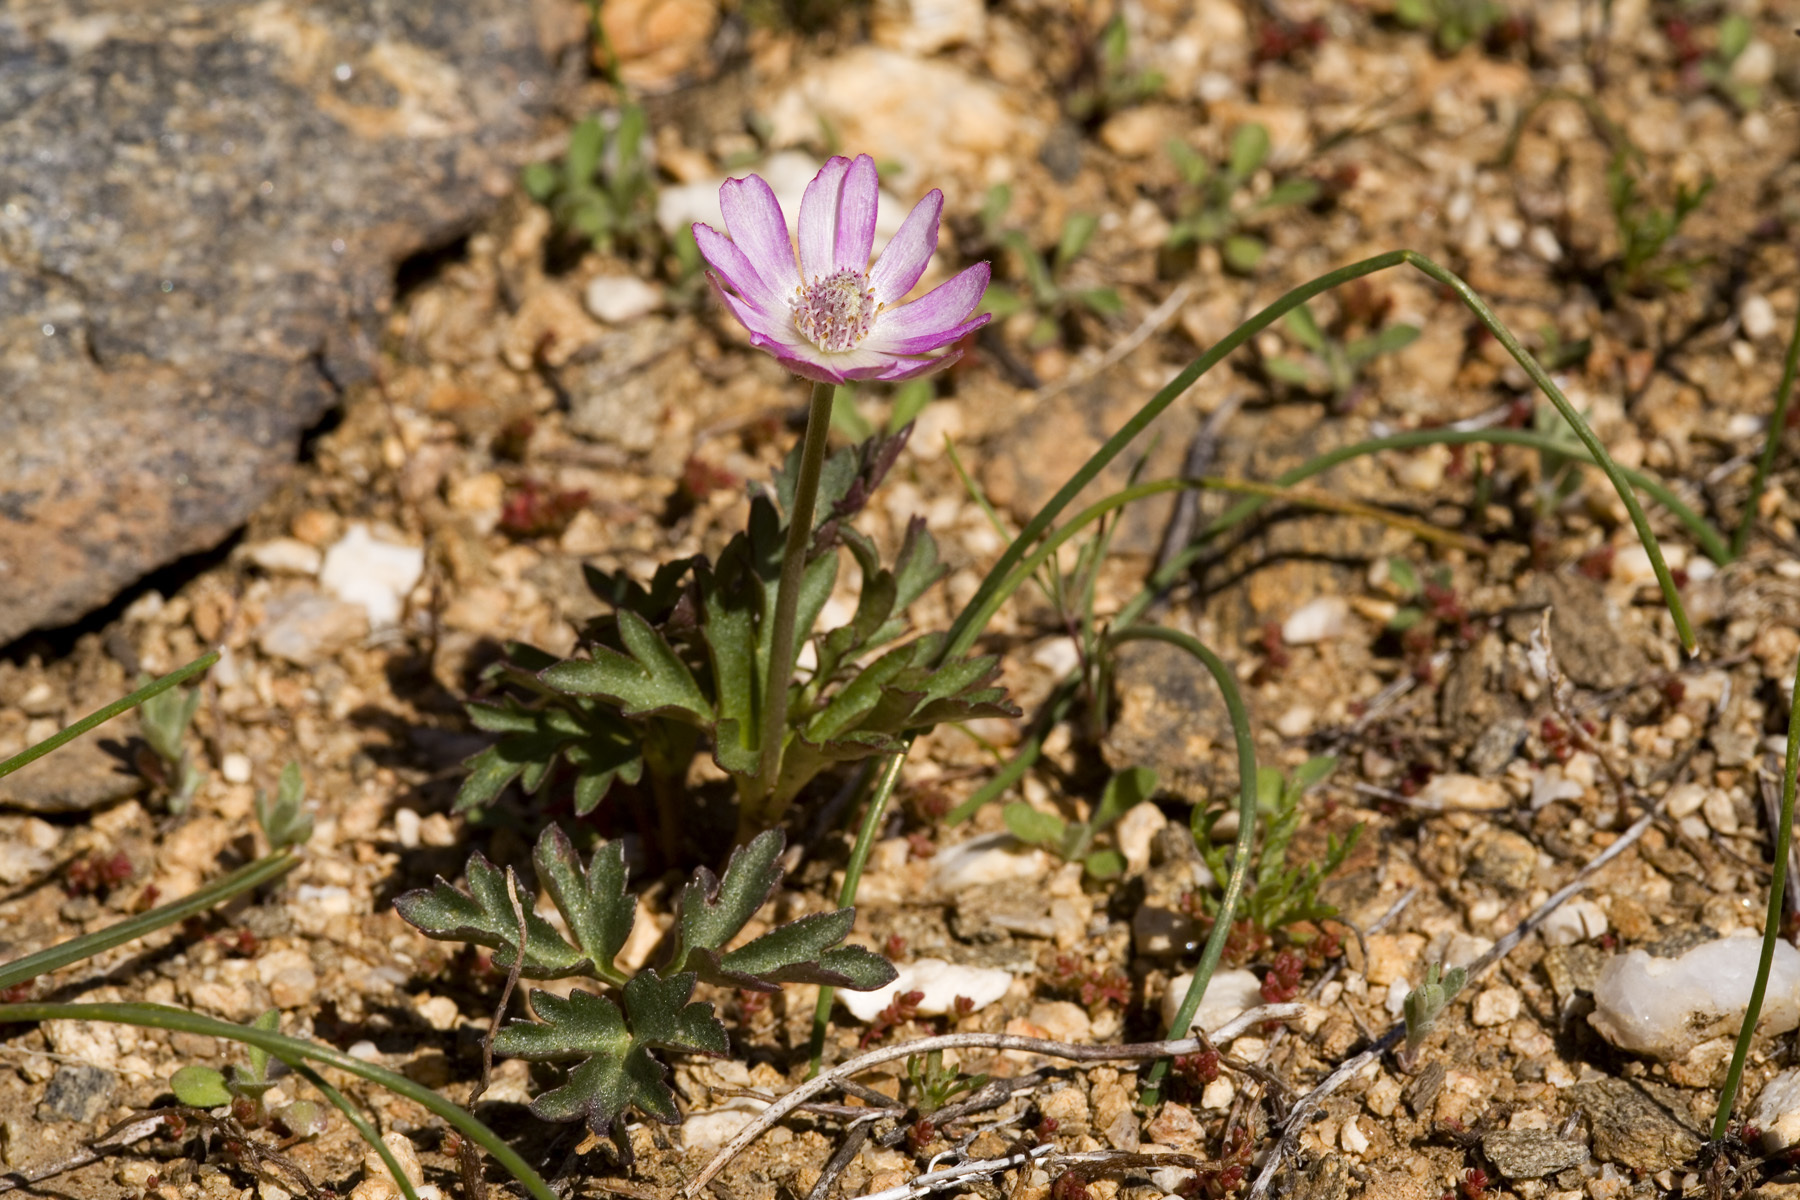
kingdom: Plantae
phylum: Tracheophyta
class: Magnoliopsida
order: Ranunculales
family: Ranunculaceae
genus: Anemone
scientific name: Anemone tuberosa
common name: Desert anemone
